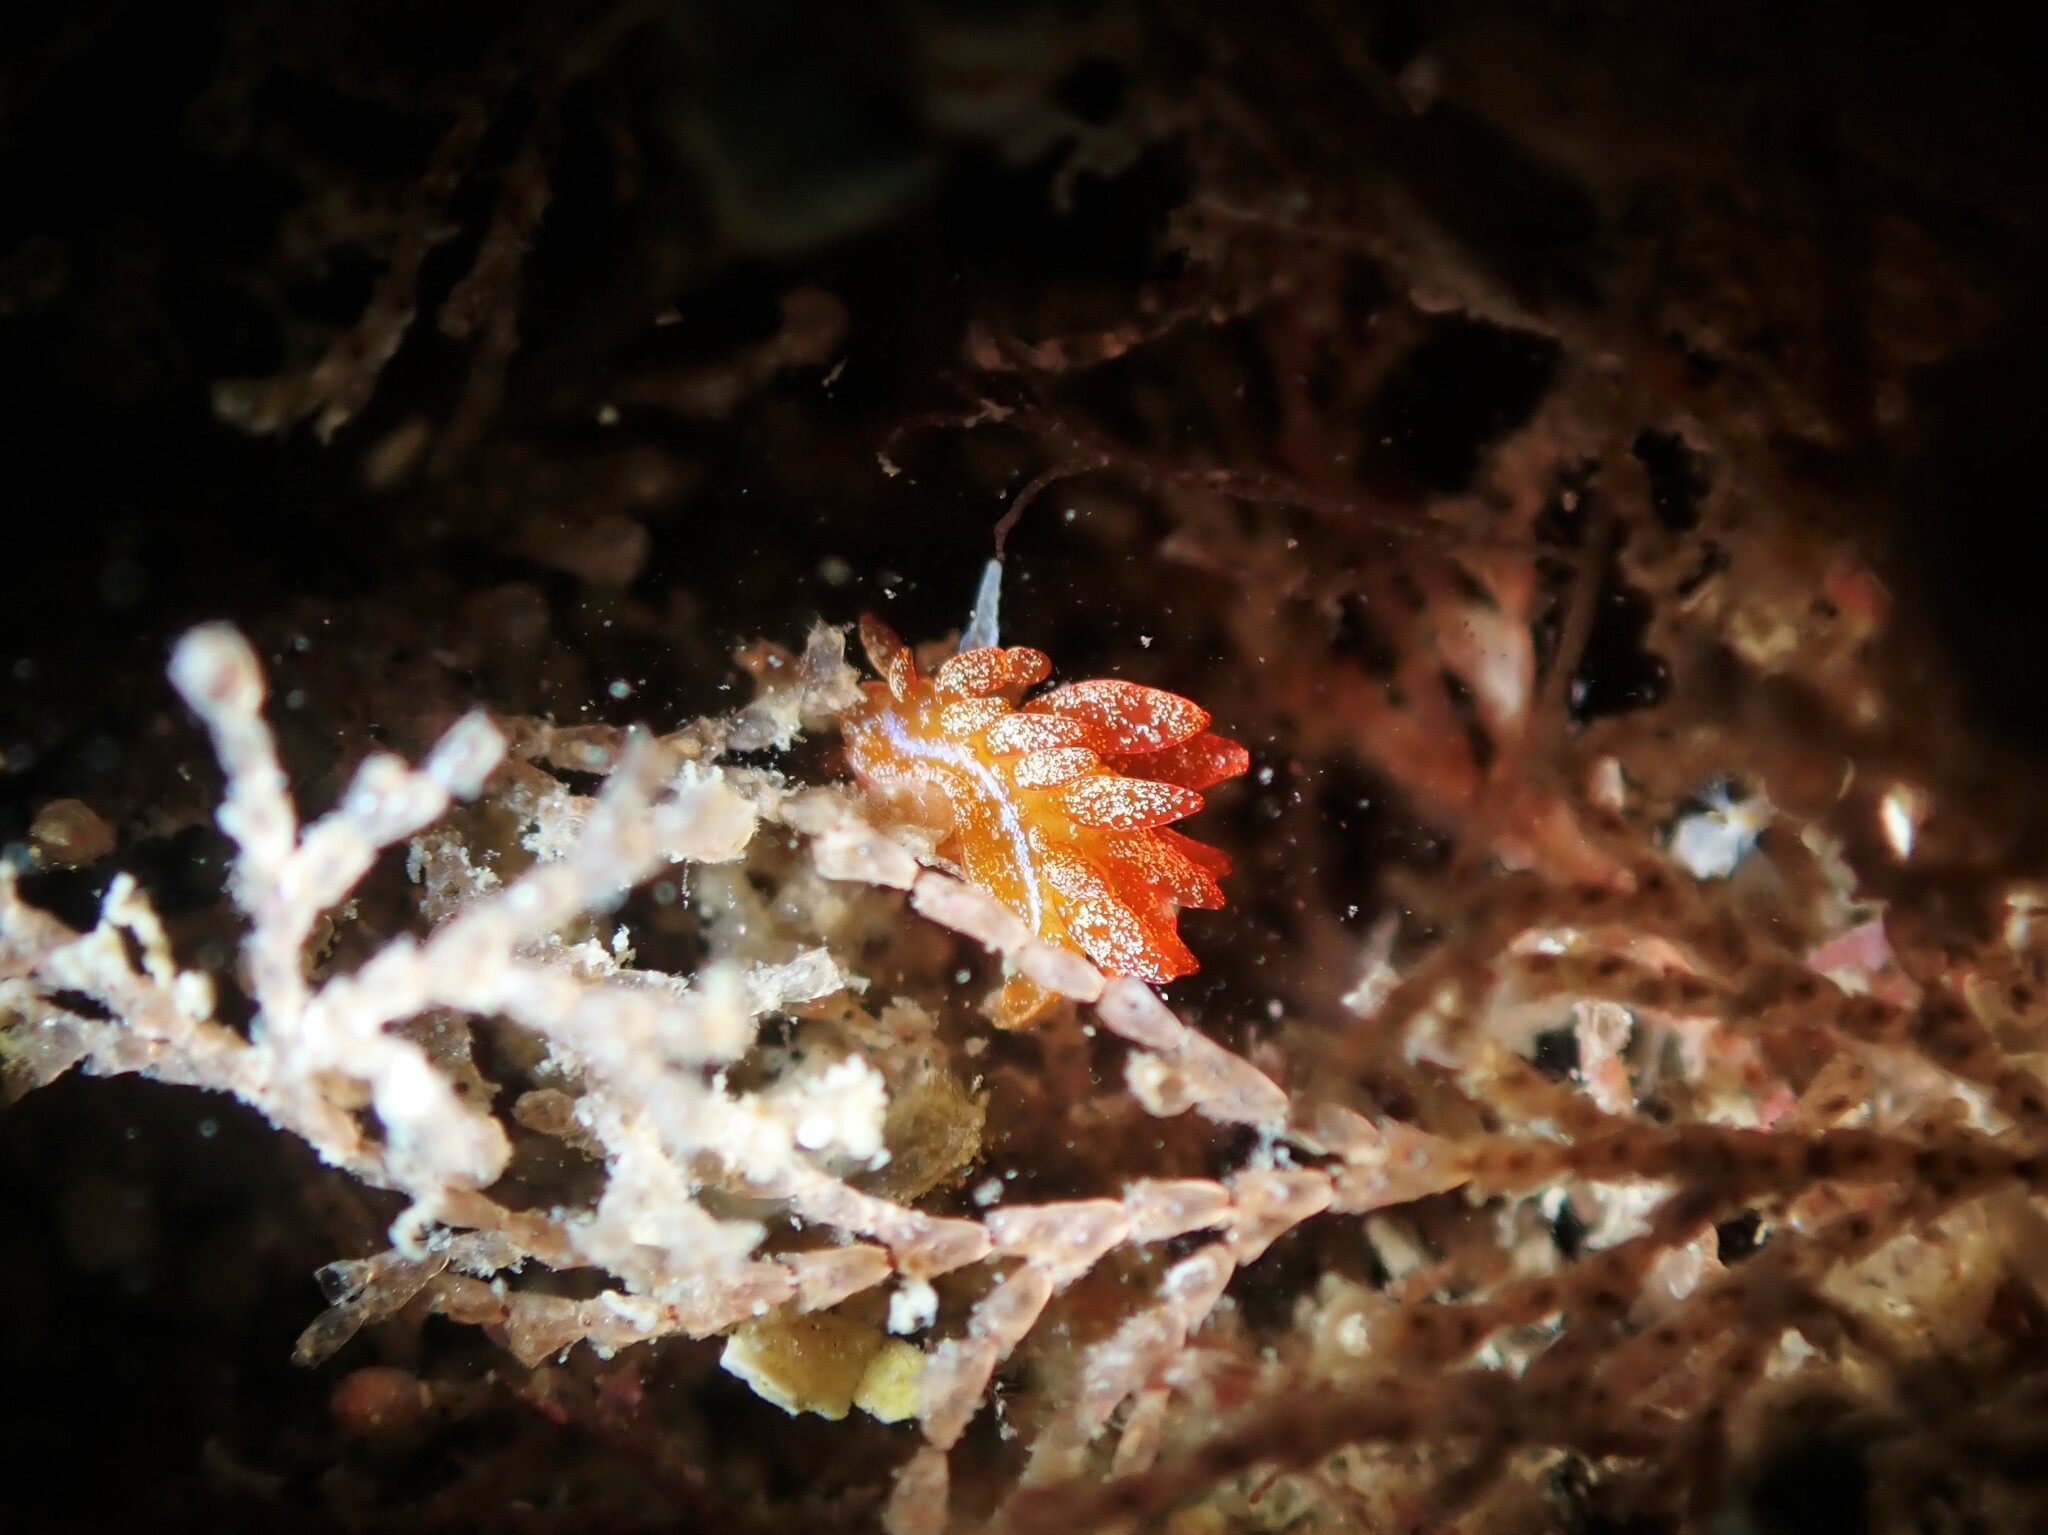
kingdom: Animalia
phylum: Mollusca
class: Gastropoda
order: Nudibranchia
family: Janolidae
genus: Janolus
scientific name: Janolus ignis
